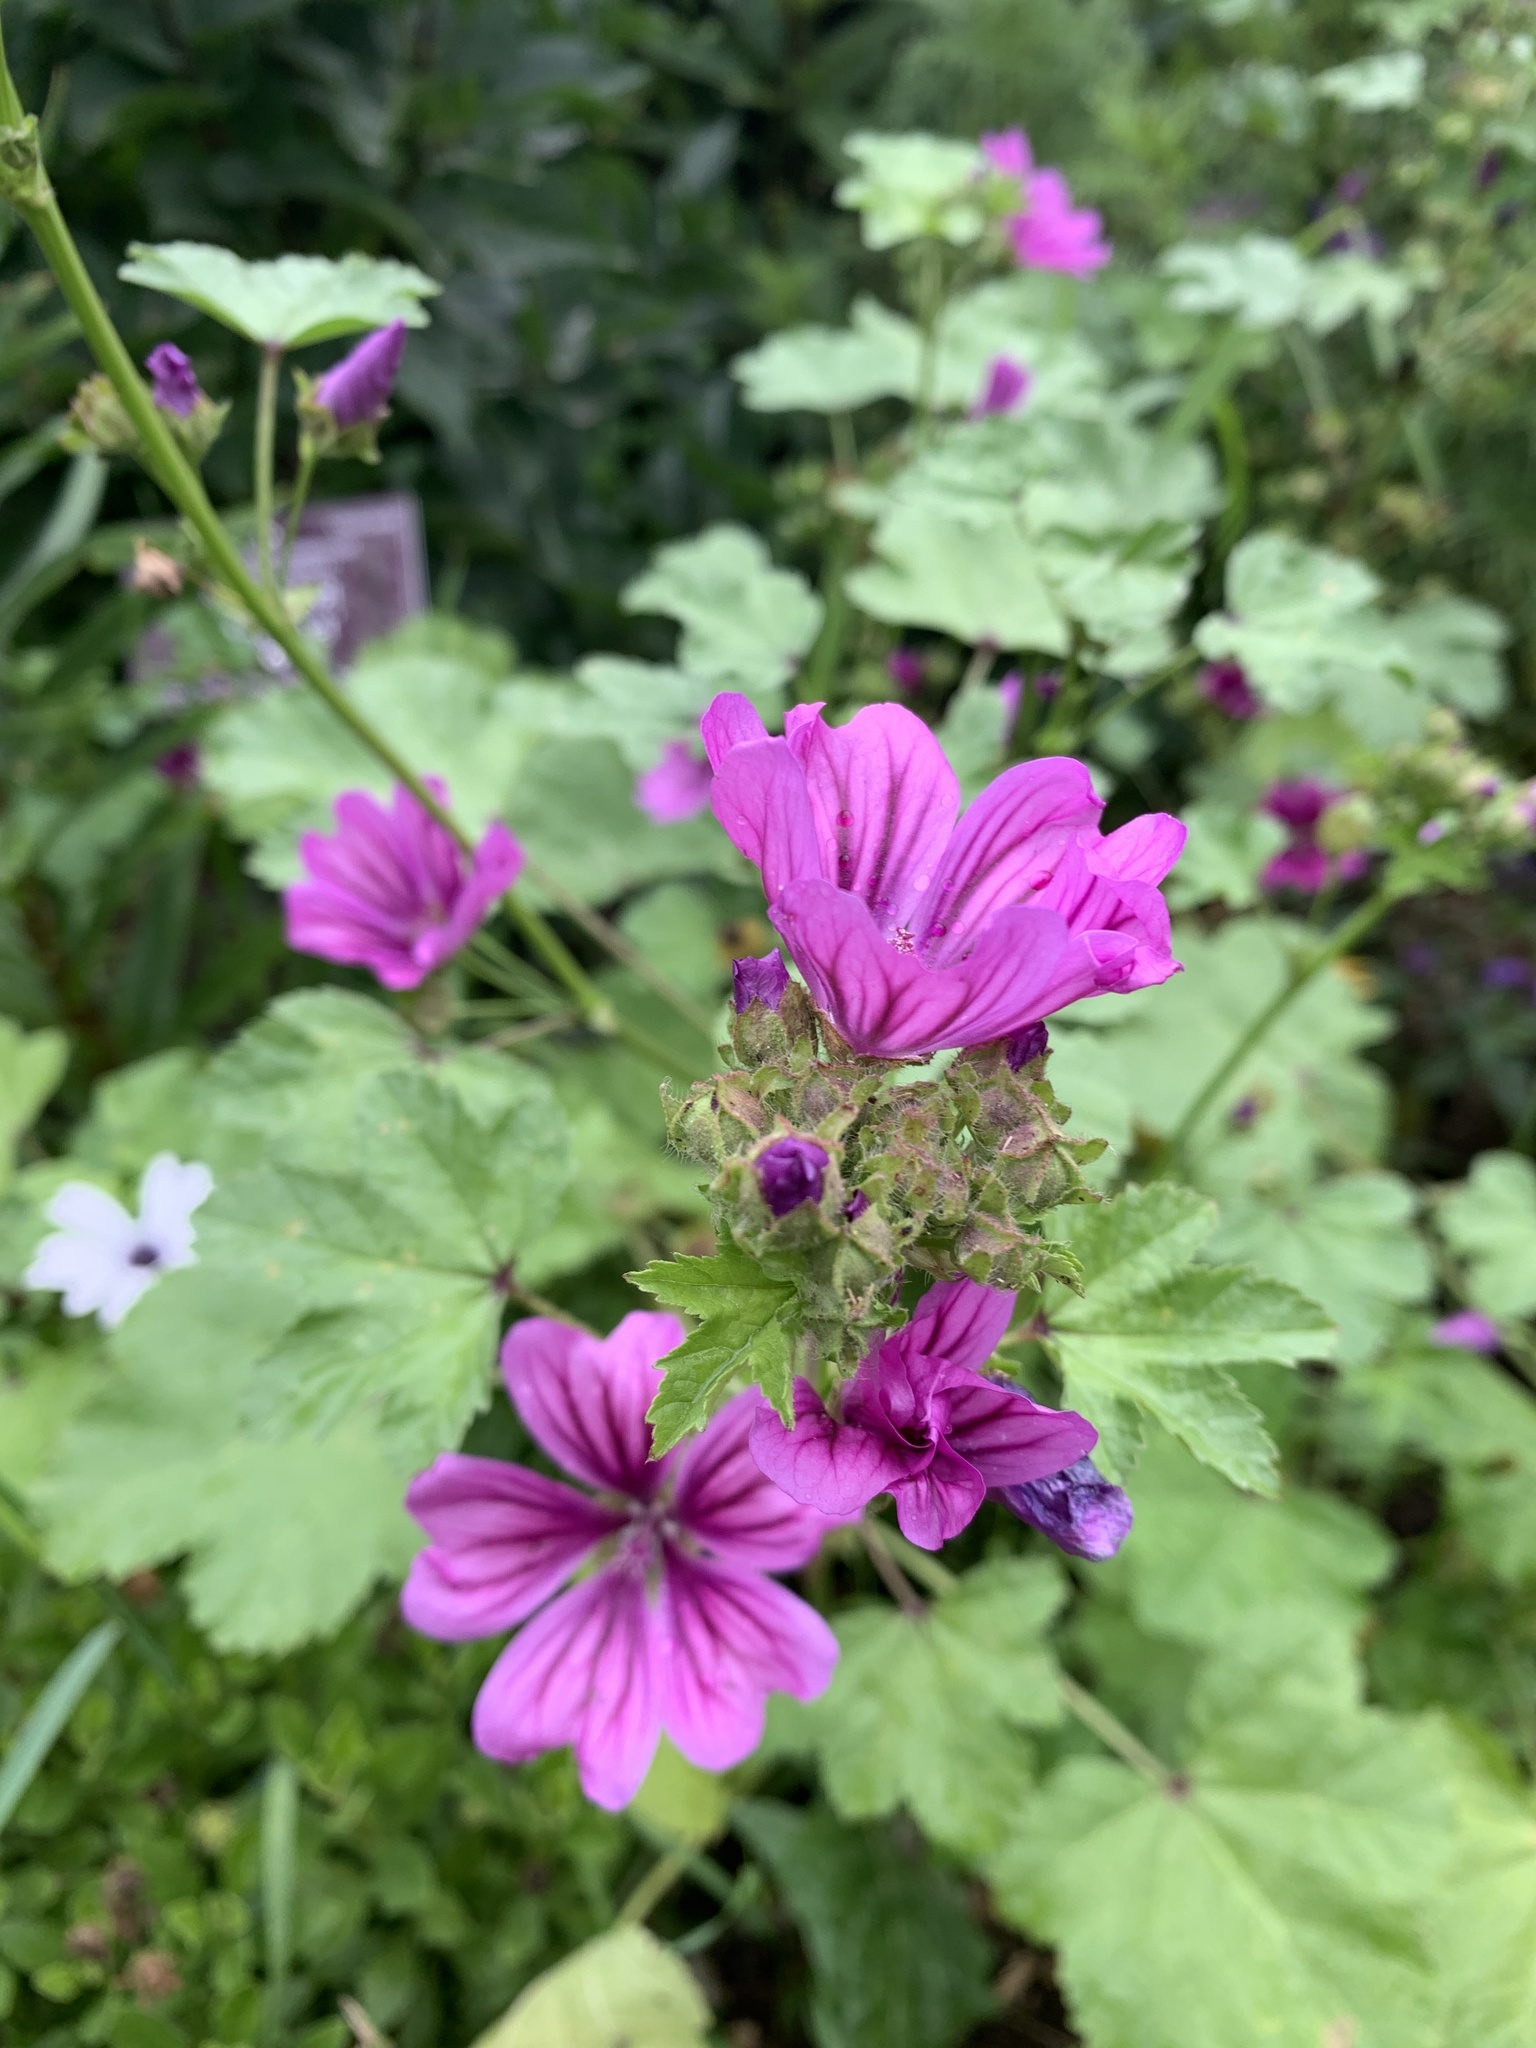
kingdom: Plantae
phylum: Tracheophyta
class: Magnoliopsida
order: Malvales
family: Malvaceae
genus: Malva
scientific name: Malva sylvestris
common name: Common mallow
